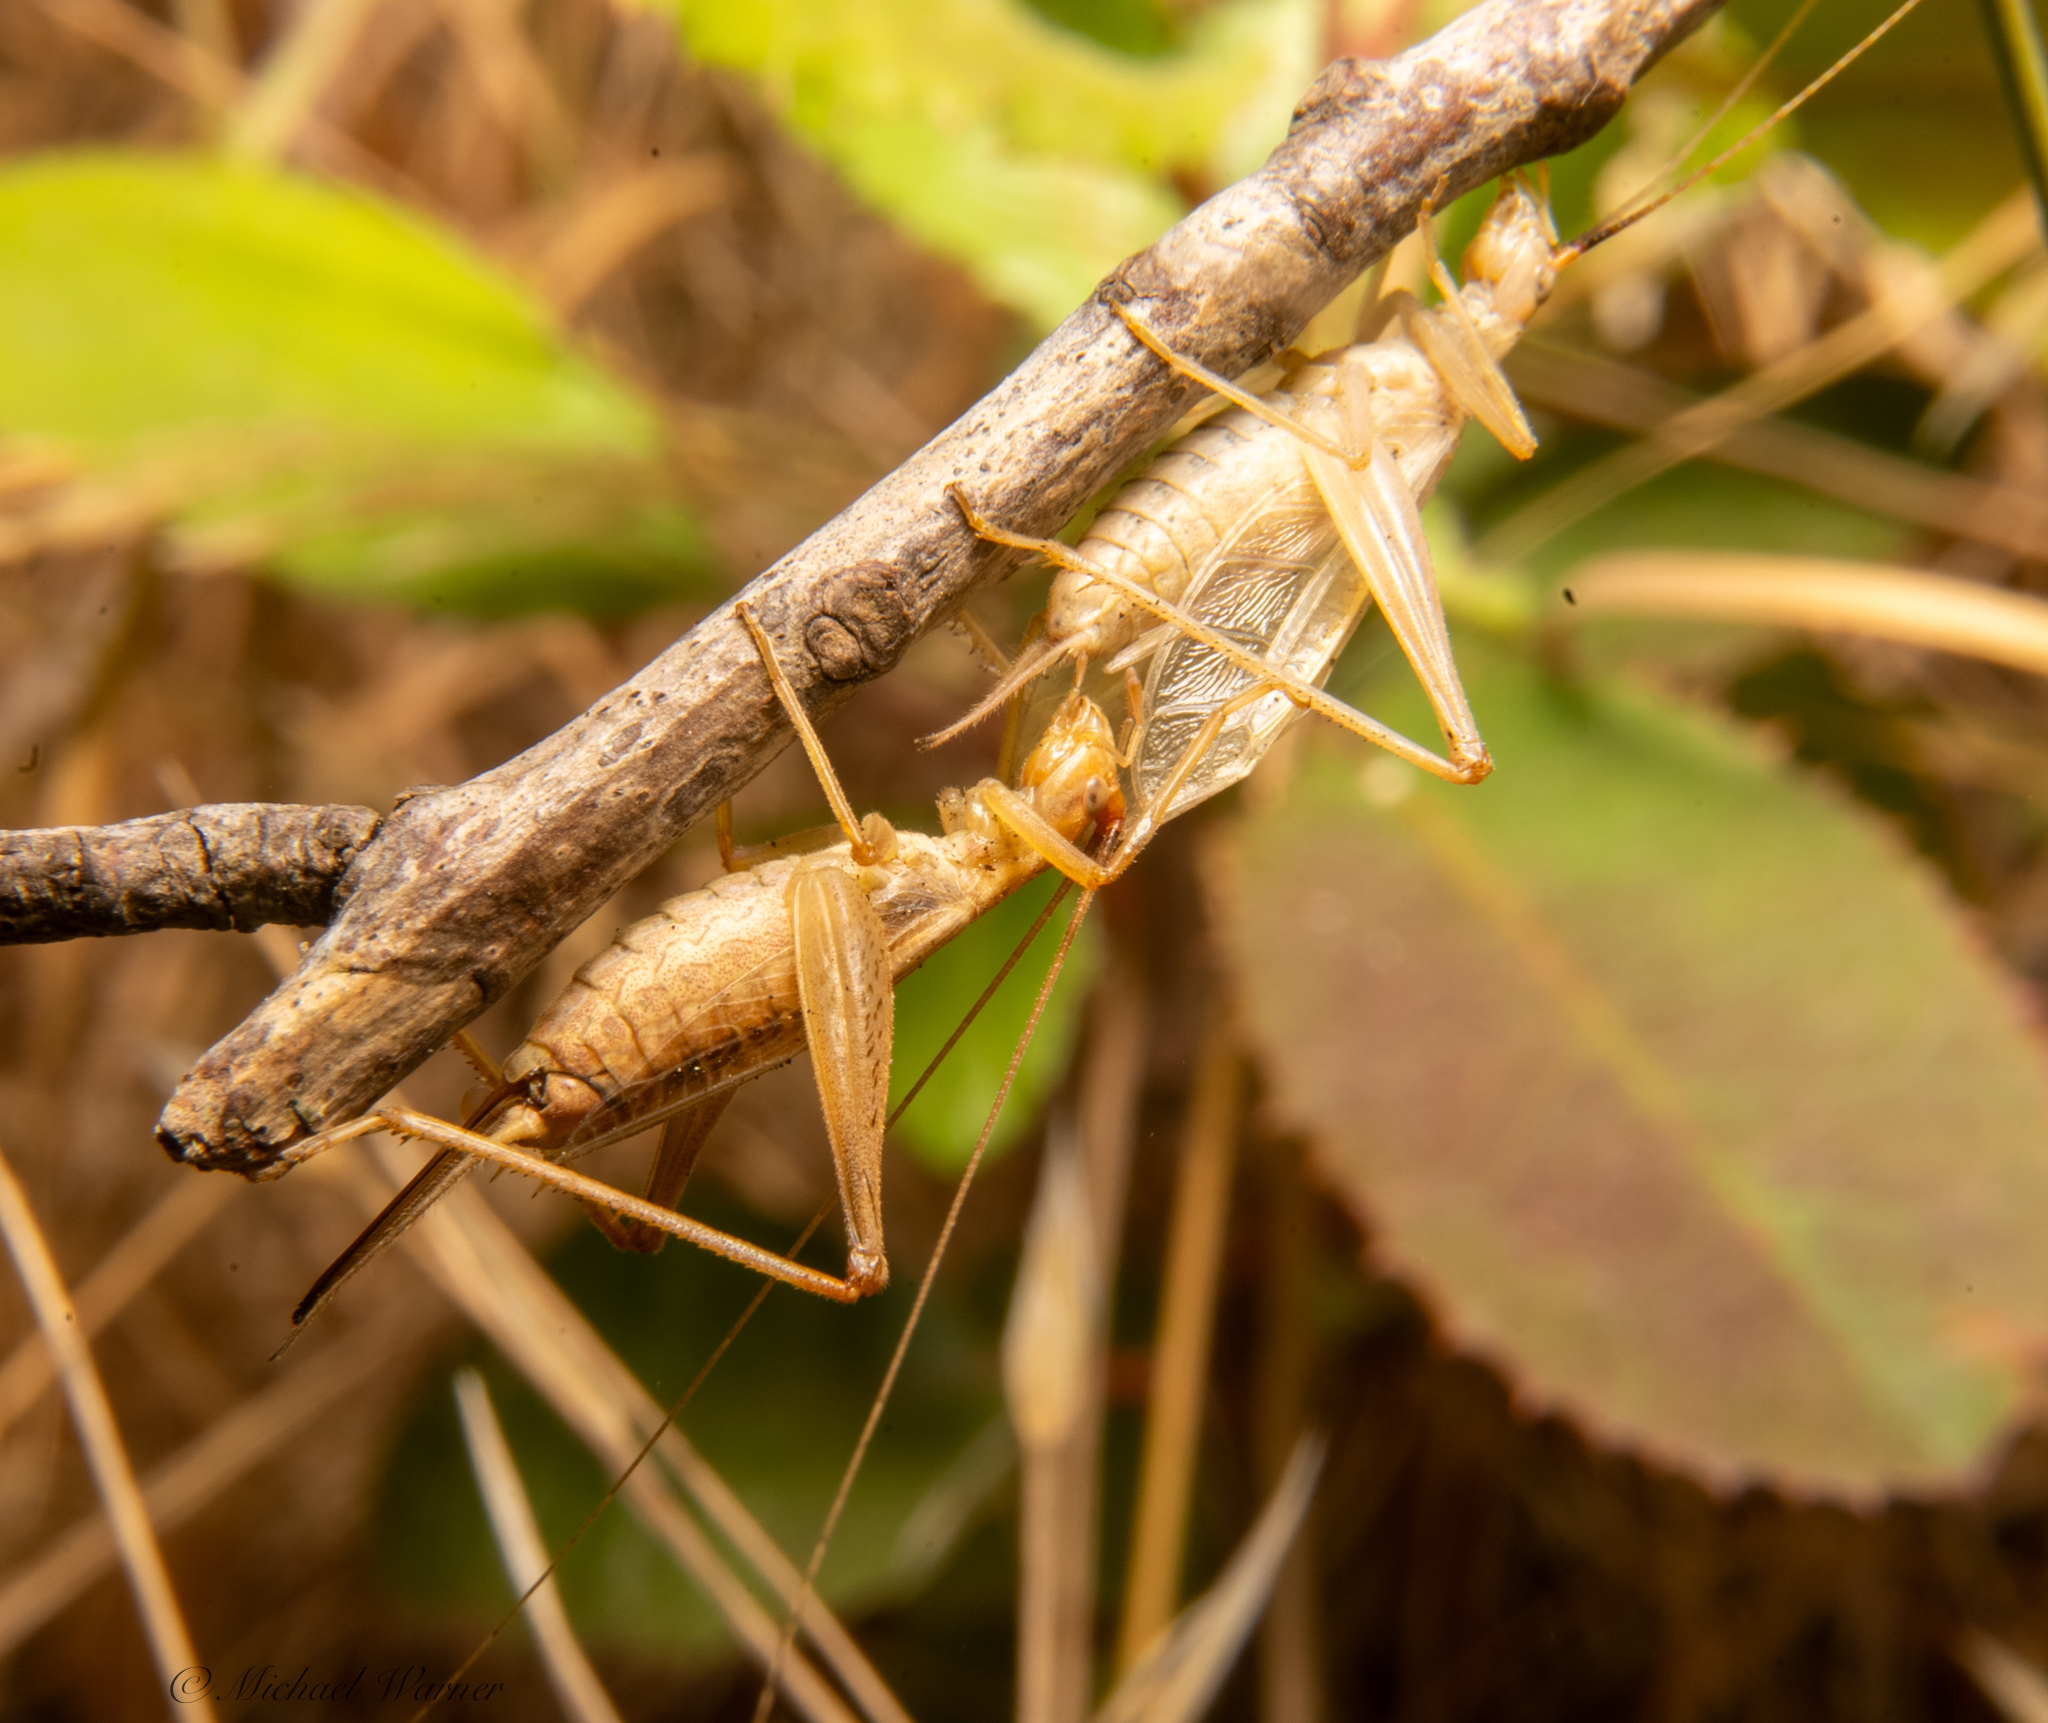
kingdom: Animalia
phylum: Arthropoda
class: Insecta
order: Orthoptera
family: Gryllidae
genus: Oecanthus
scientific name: Oecanthus californicus
